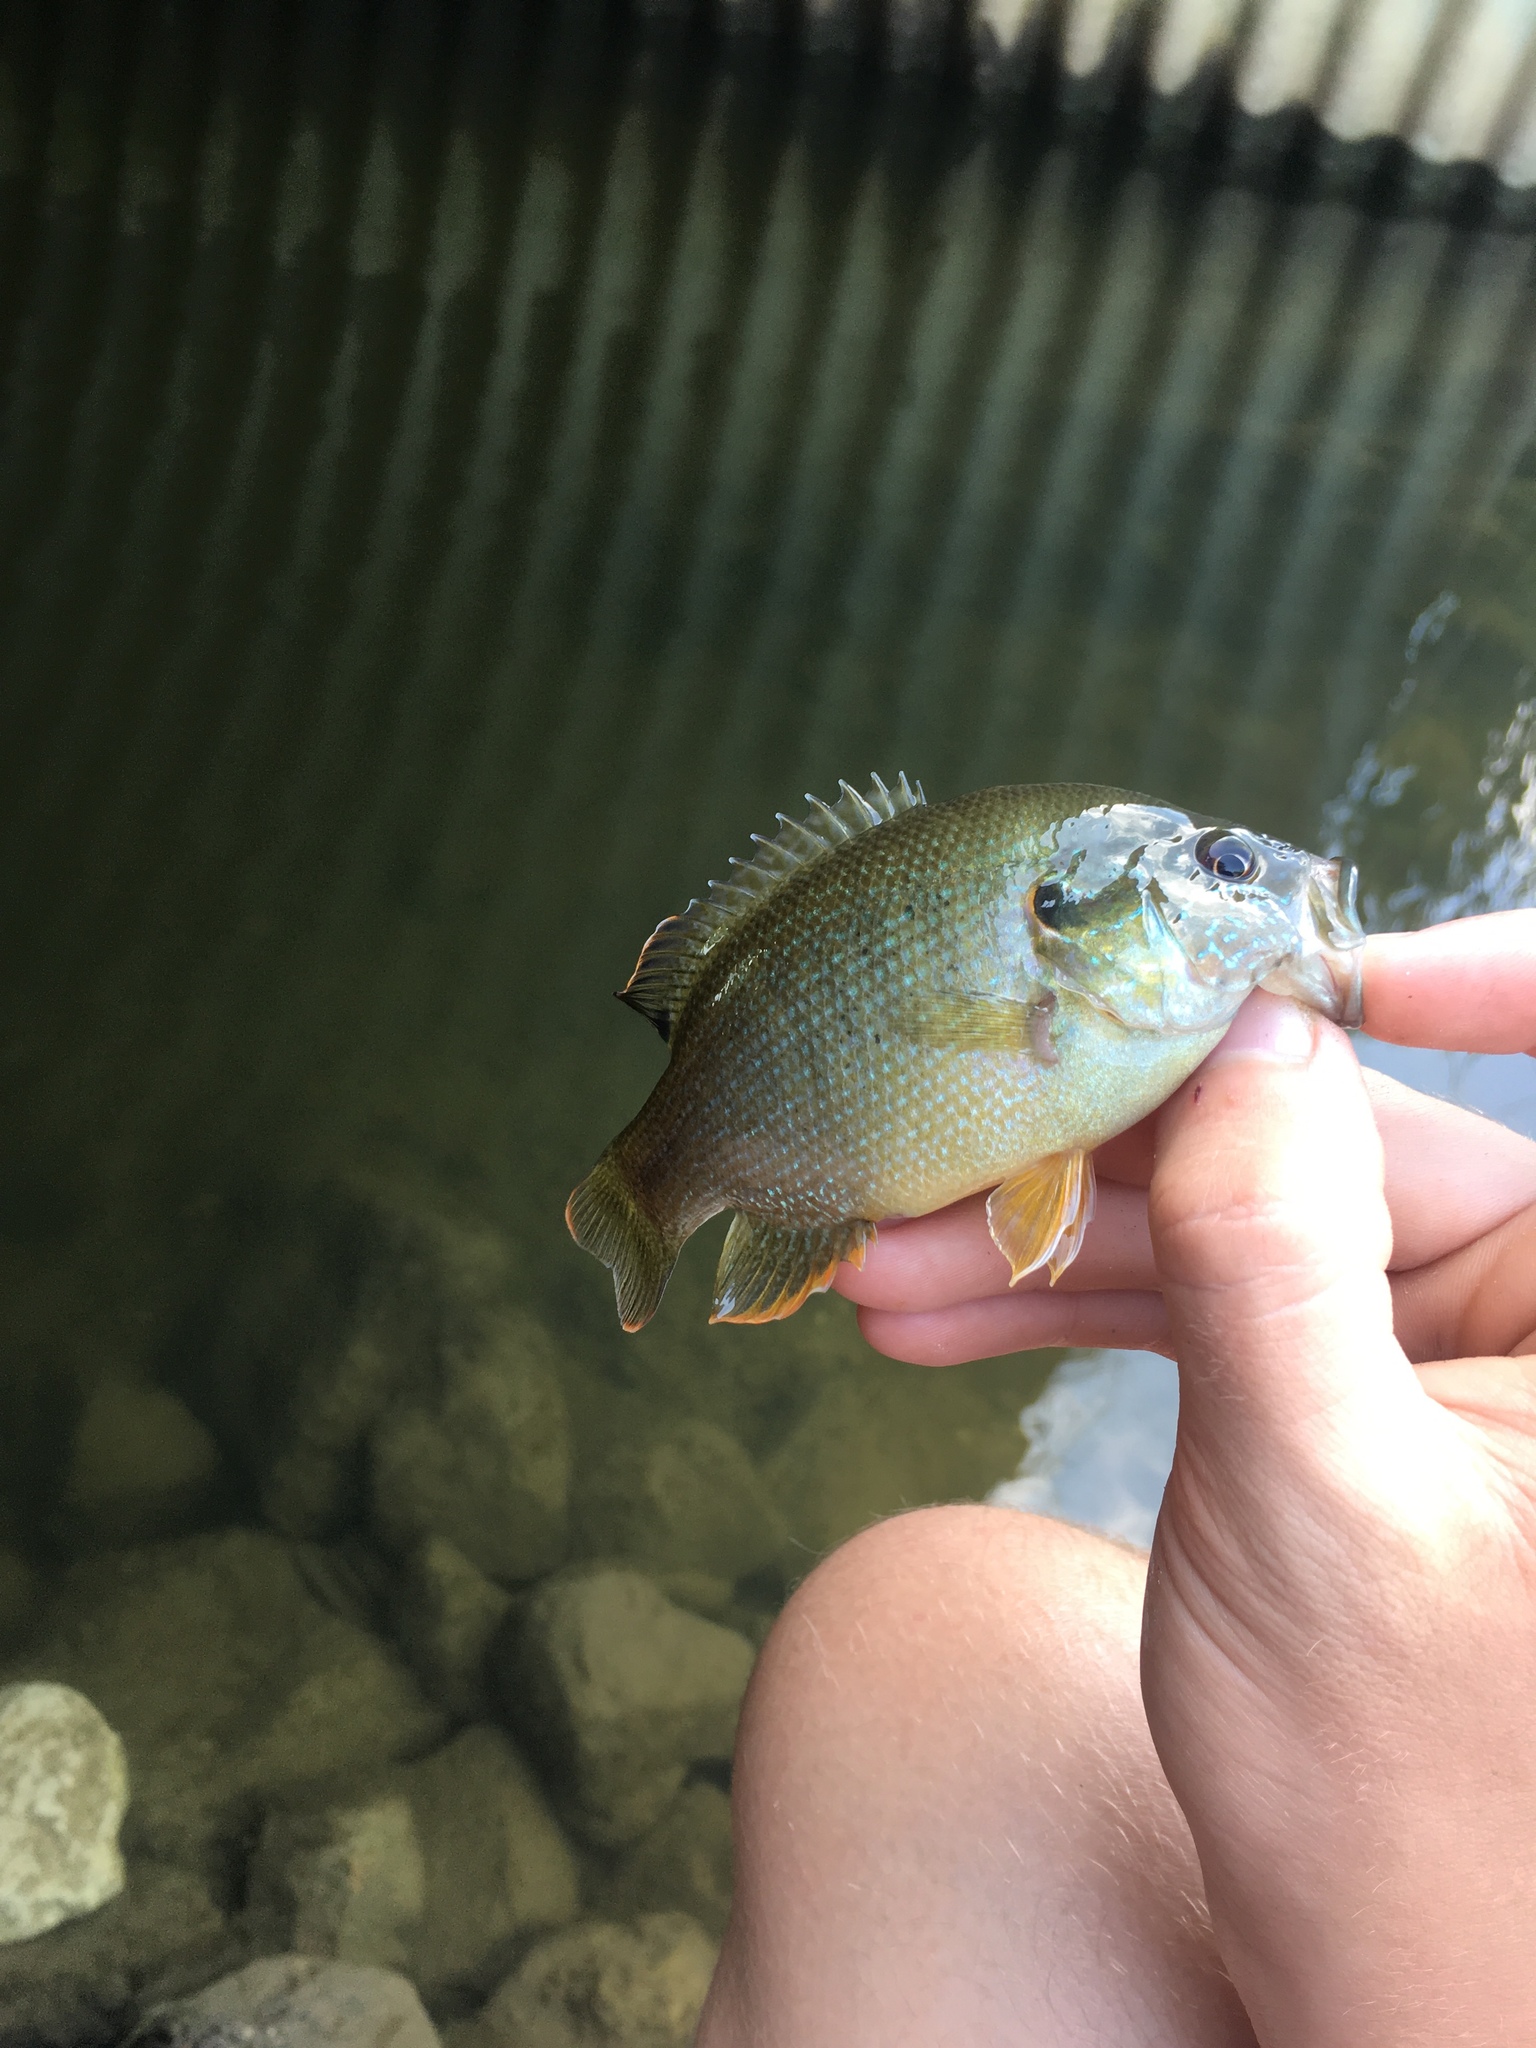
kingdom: Animalia
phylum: Chordata
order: Perciformes
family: Centrarchidae
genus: Lepomis
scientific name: Lepomis cyanellus
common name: Green sunfish
